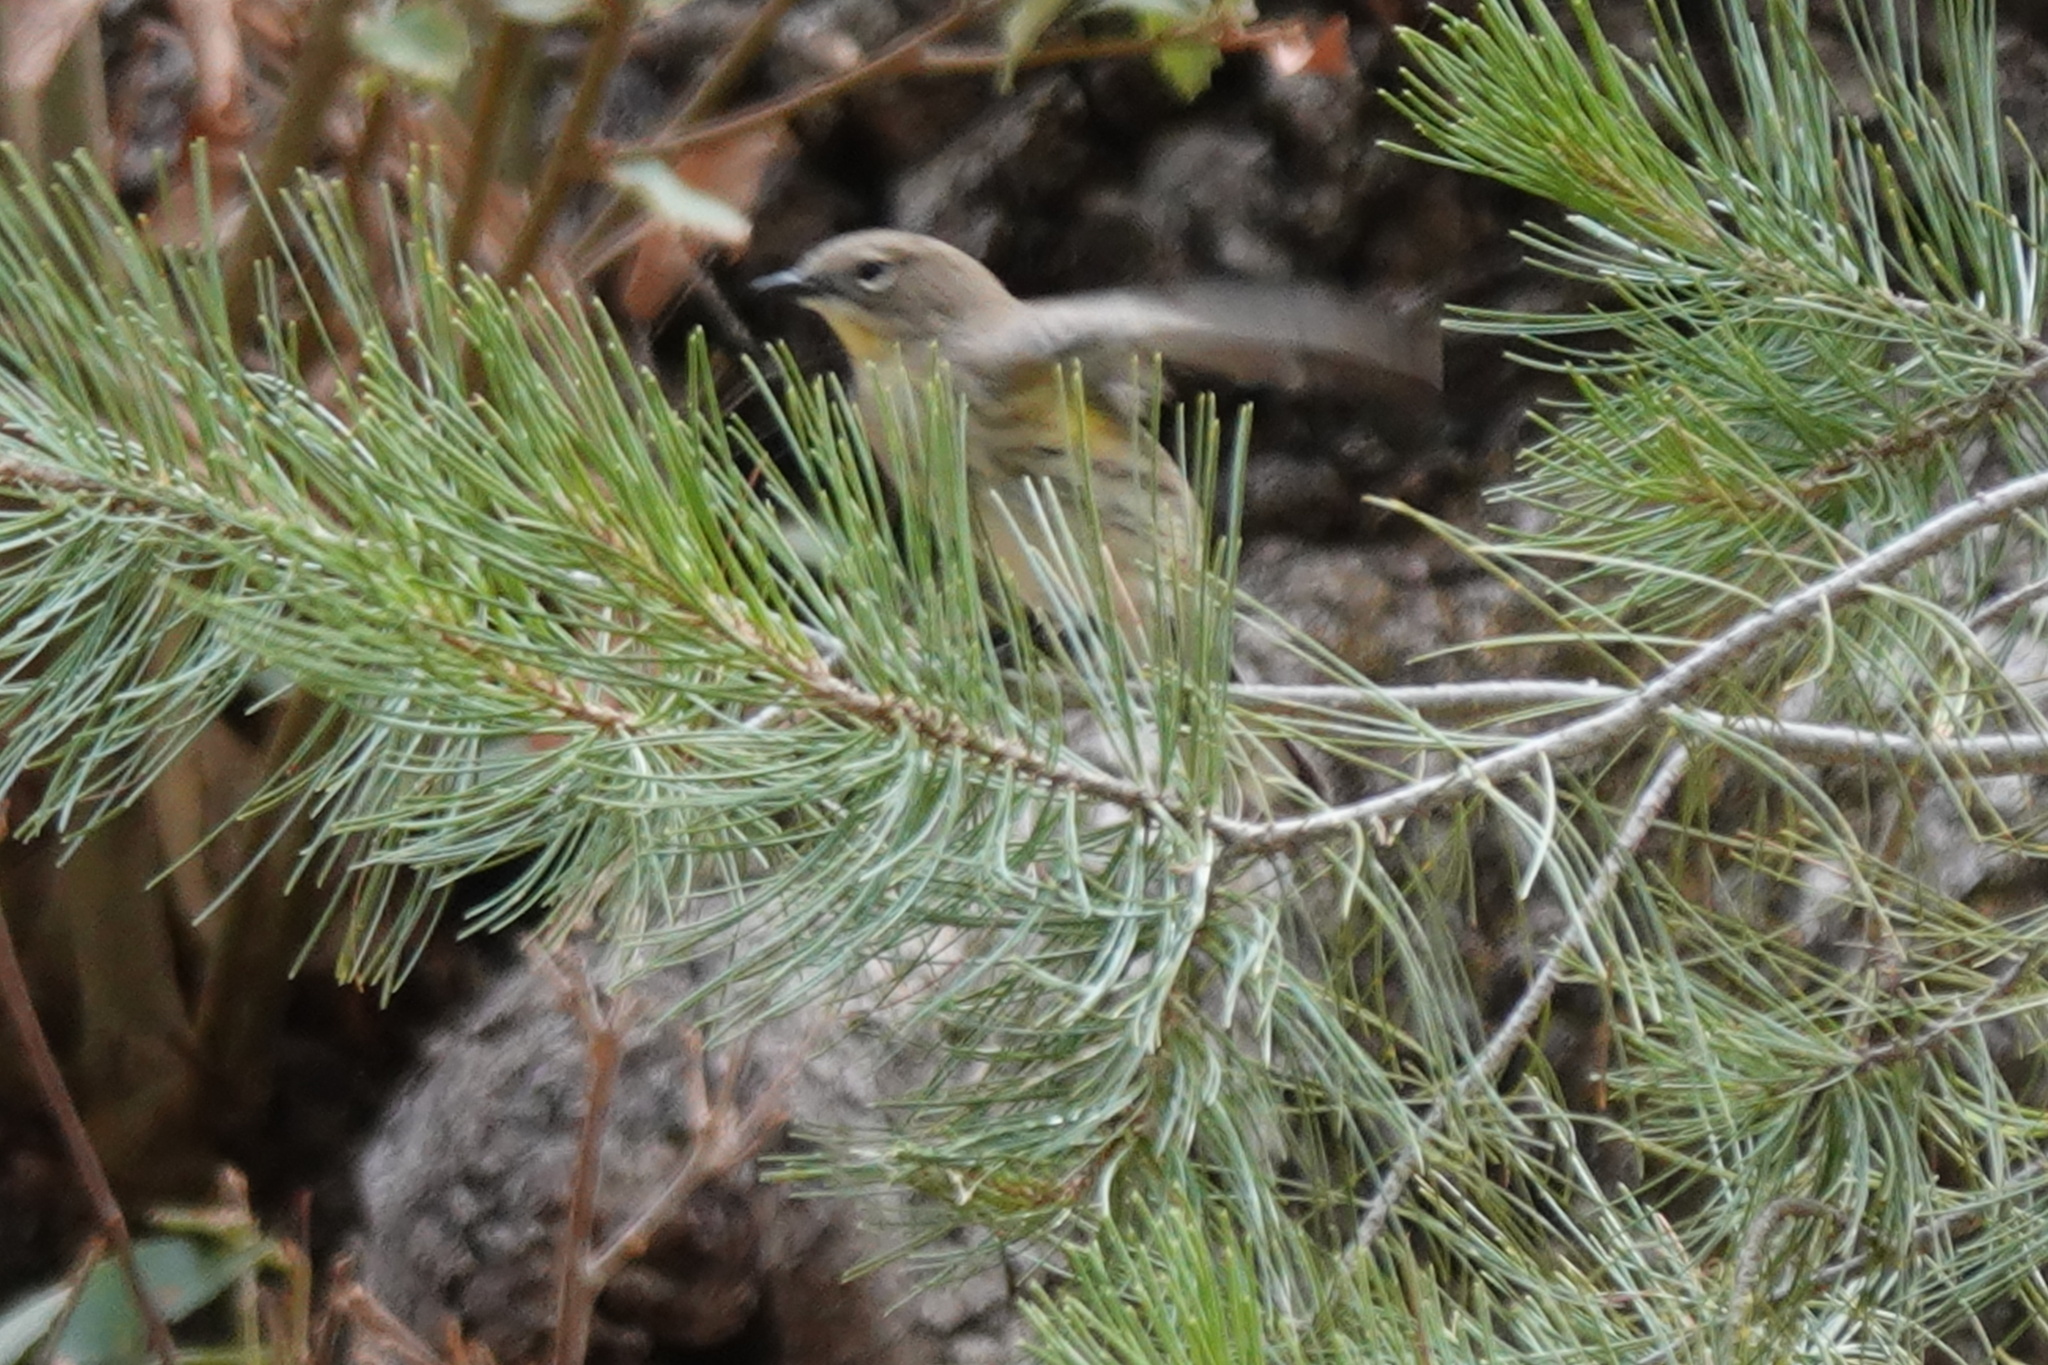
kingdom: Animalia
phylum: Chordata
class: Aves
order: Passeriformes
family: Parulidae
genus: Setophaga
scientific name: Setophaga coronata
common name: Myrtle warbler
